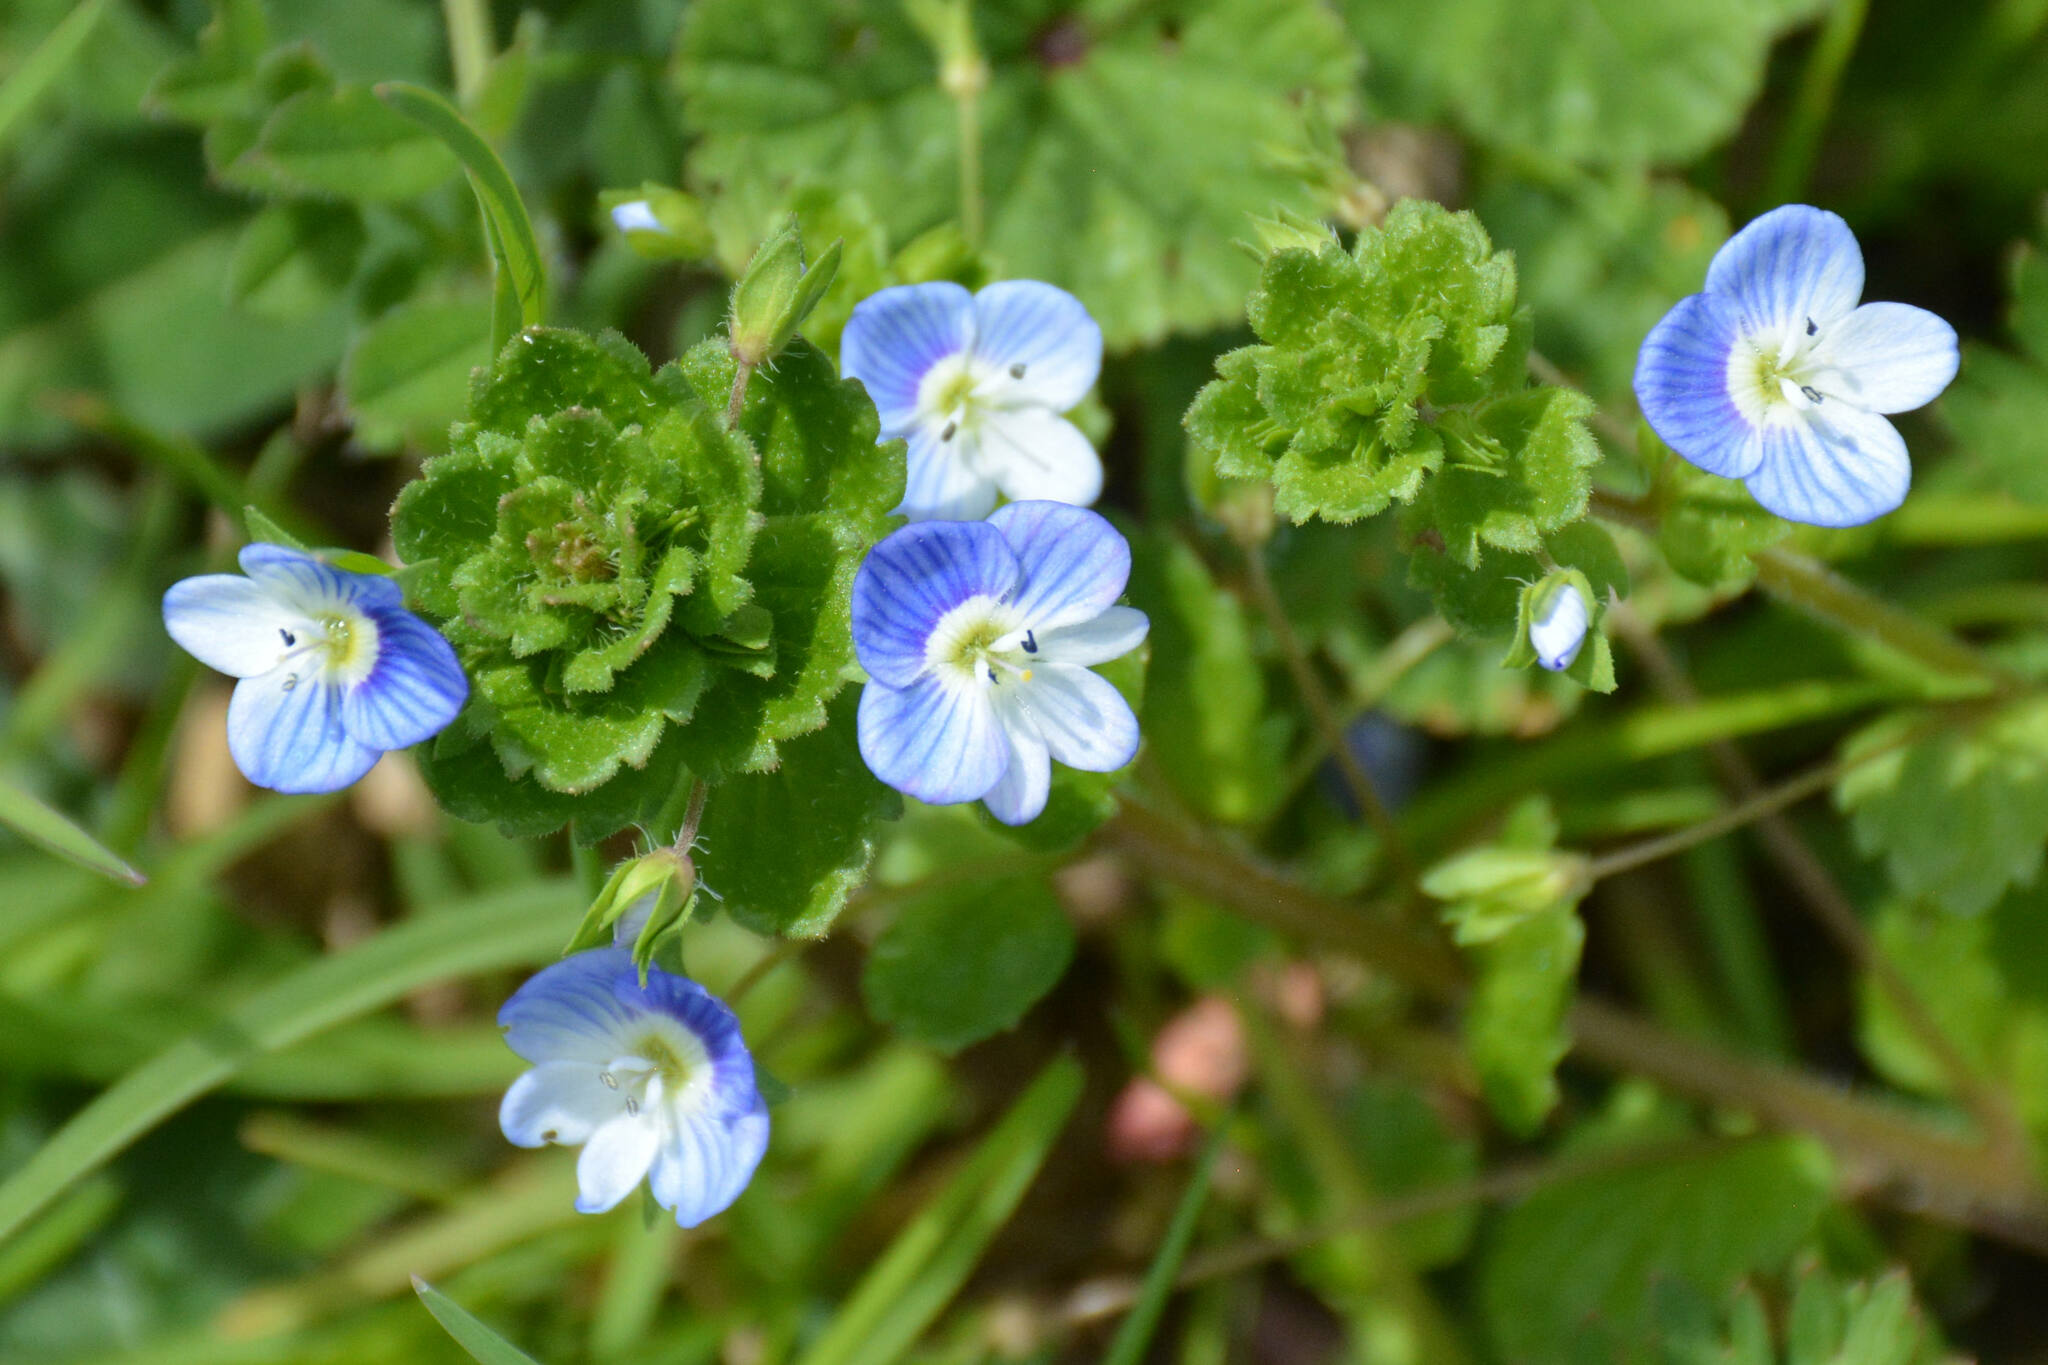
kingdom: Plantae
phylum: Tracheophyta
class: Magnoliopsida
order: Lamiales
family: Plantaginaceae
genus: Veronica
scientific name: Veronica persica
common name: Common field-speedwell
